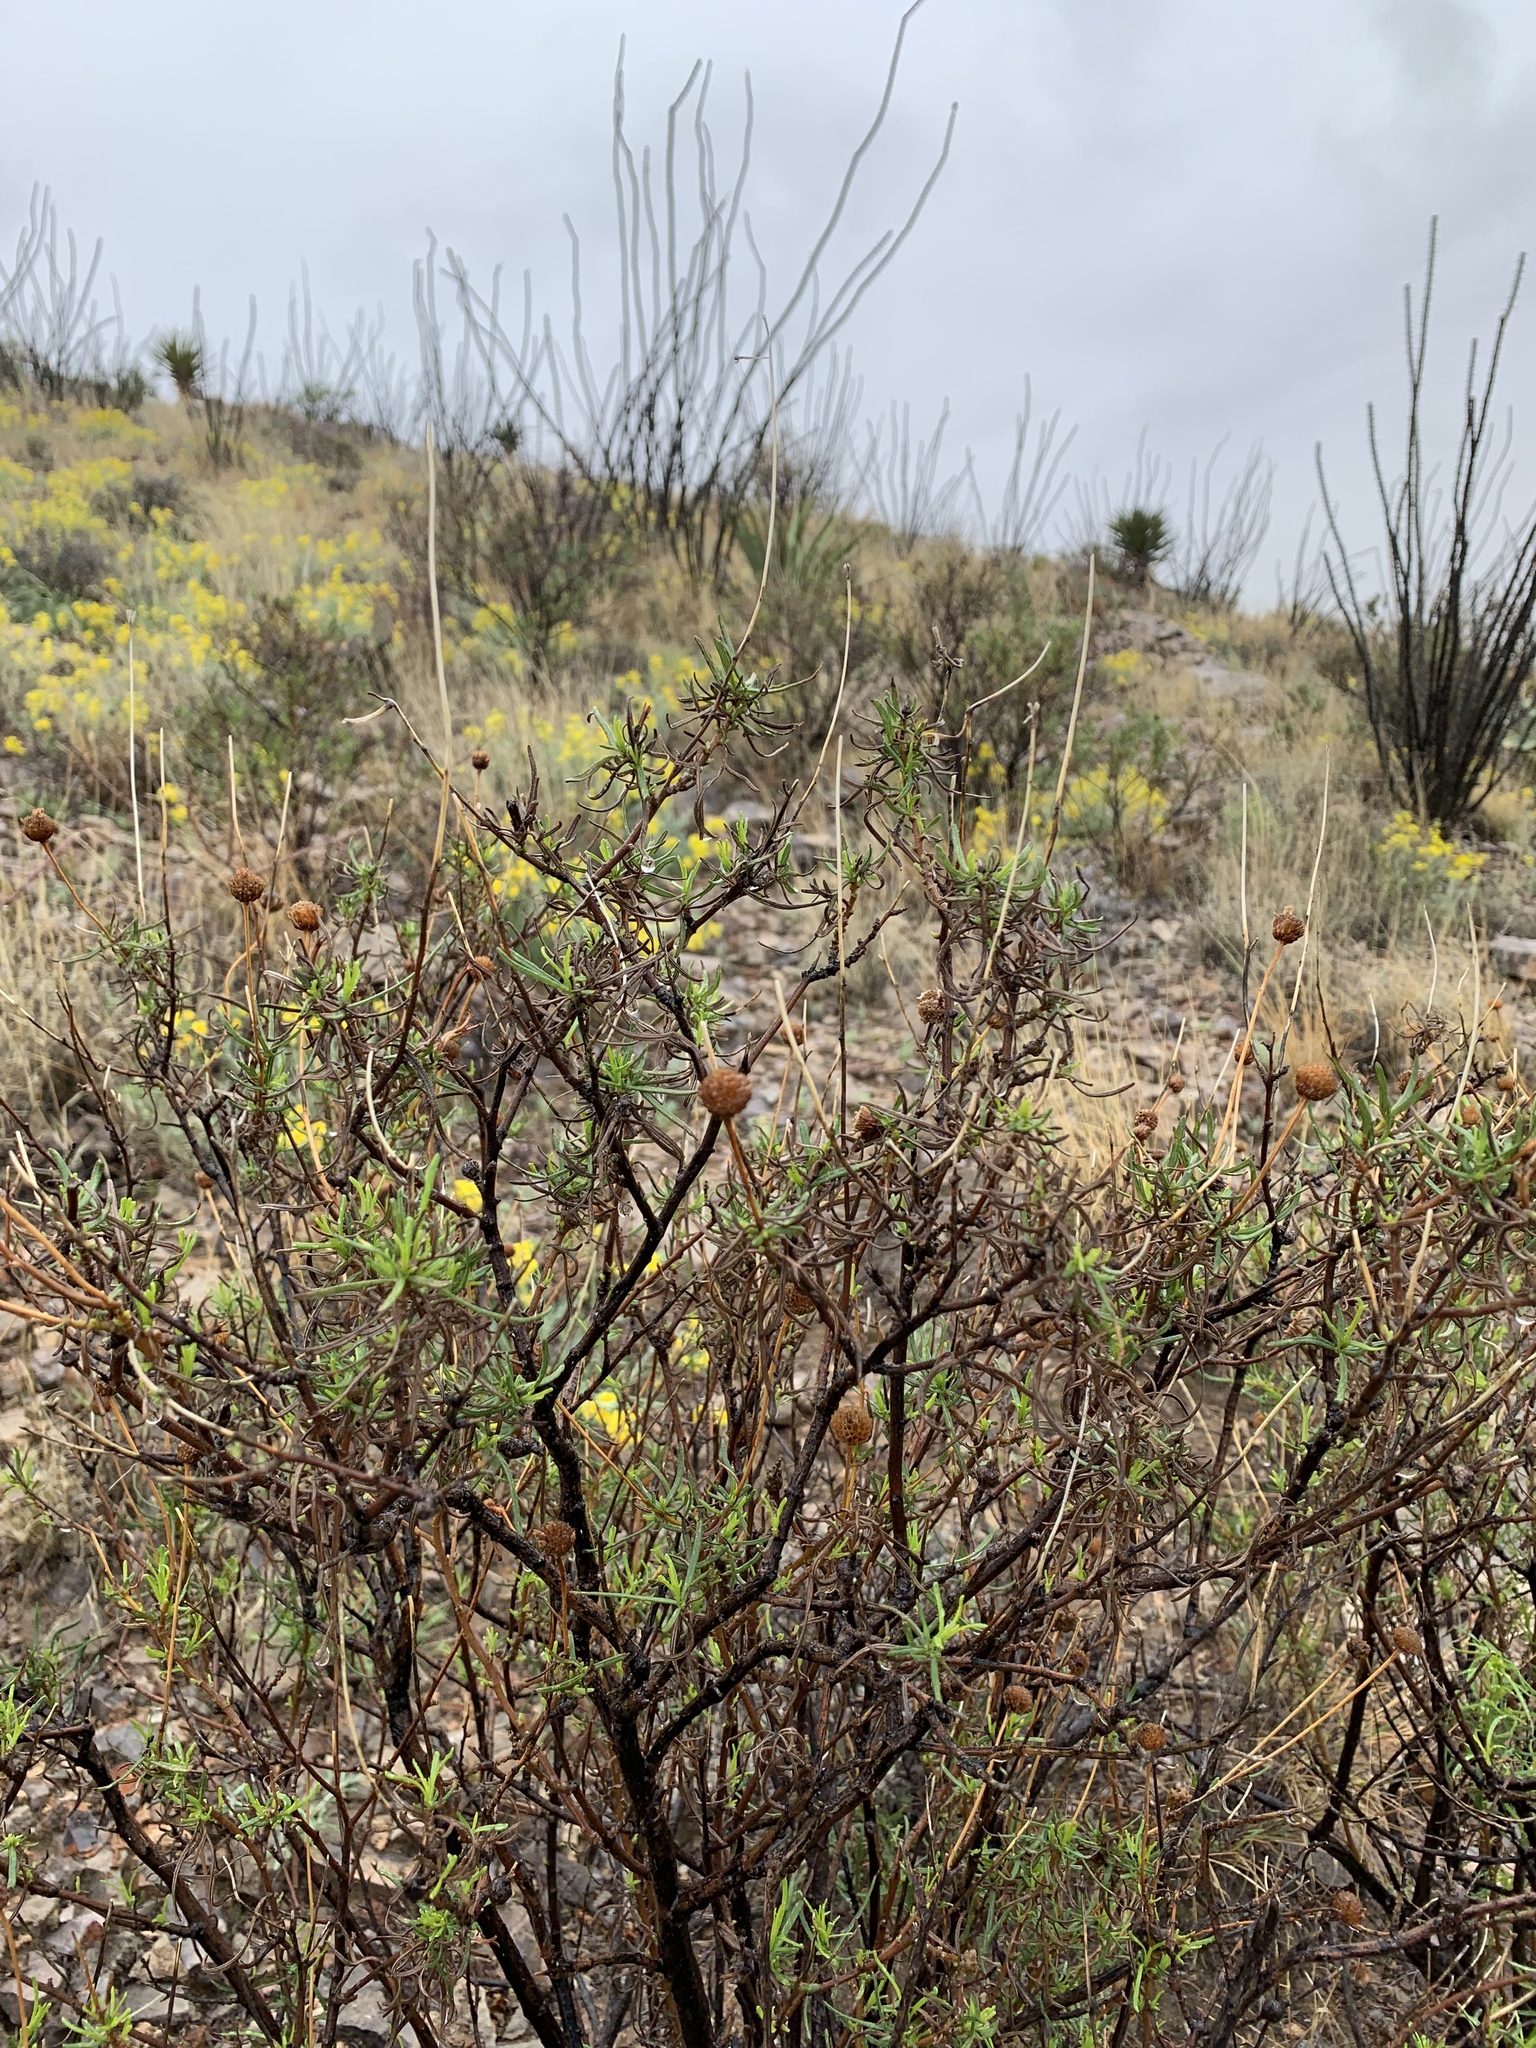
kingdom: Plantae
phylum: Tracheophyta
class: Magnoliopsida
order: Asterales
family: Asteraceae
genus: Sidneya
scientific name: Sidneya tenuifolia
